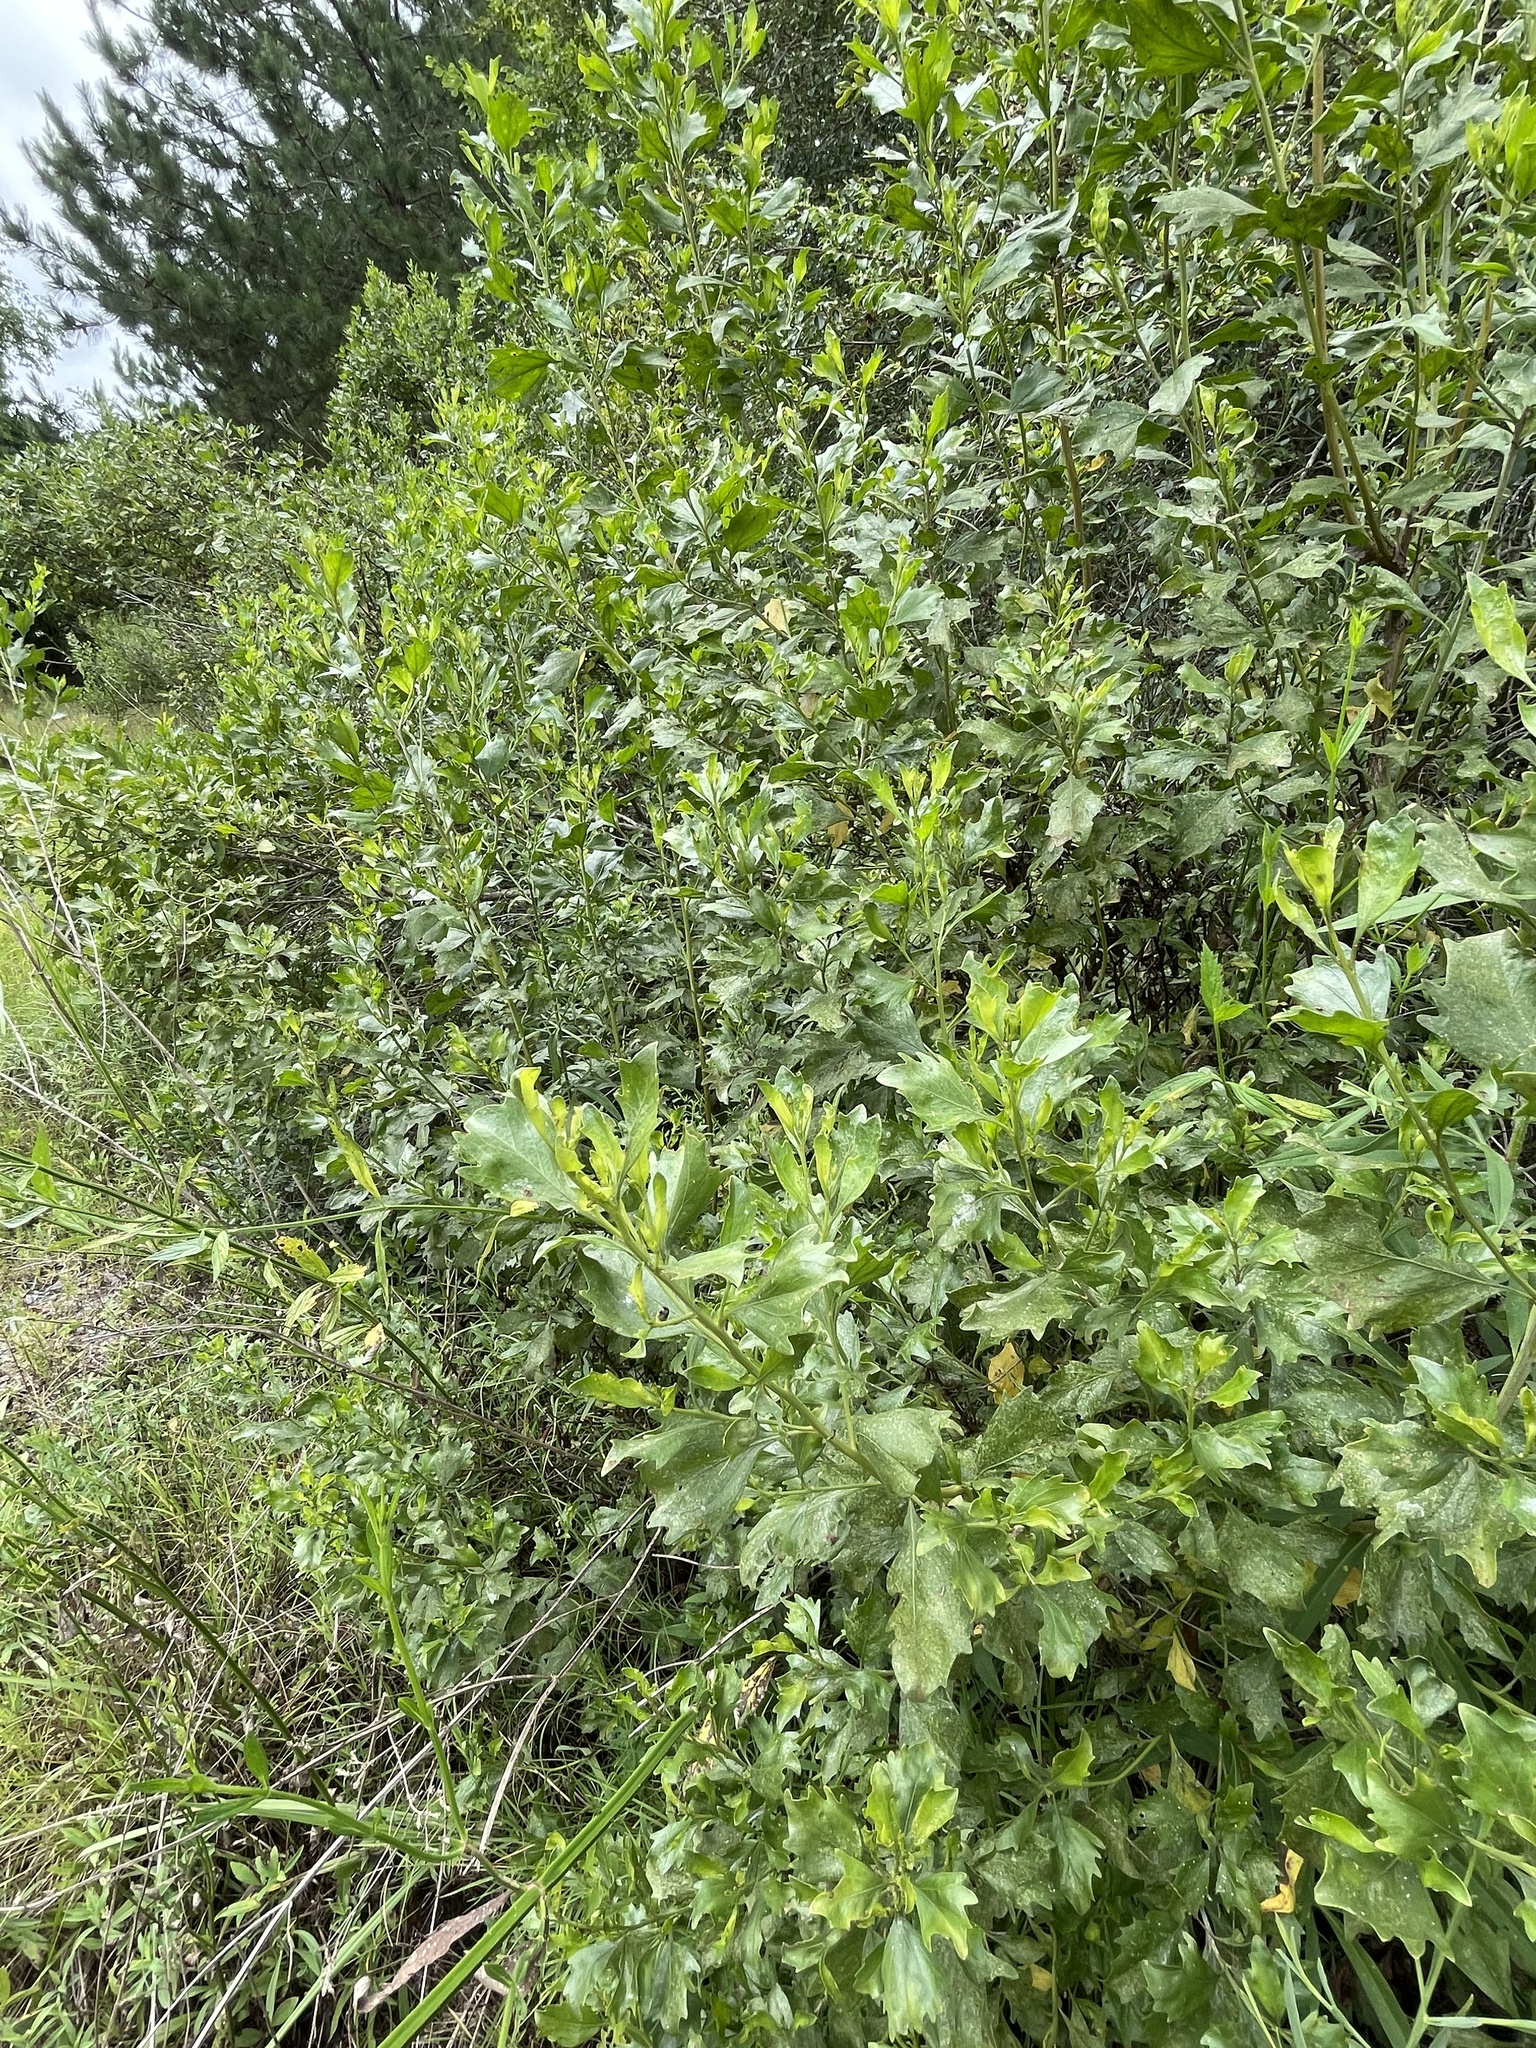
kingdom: Plantae
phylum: Tracheophyta
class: Magnoliopsida
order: Asterales
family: Asteraceae
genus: Baccharis
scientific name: Baccharis halimifolia
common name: Eastern baccharis
